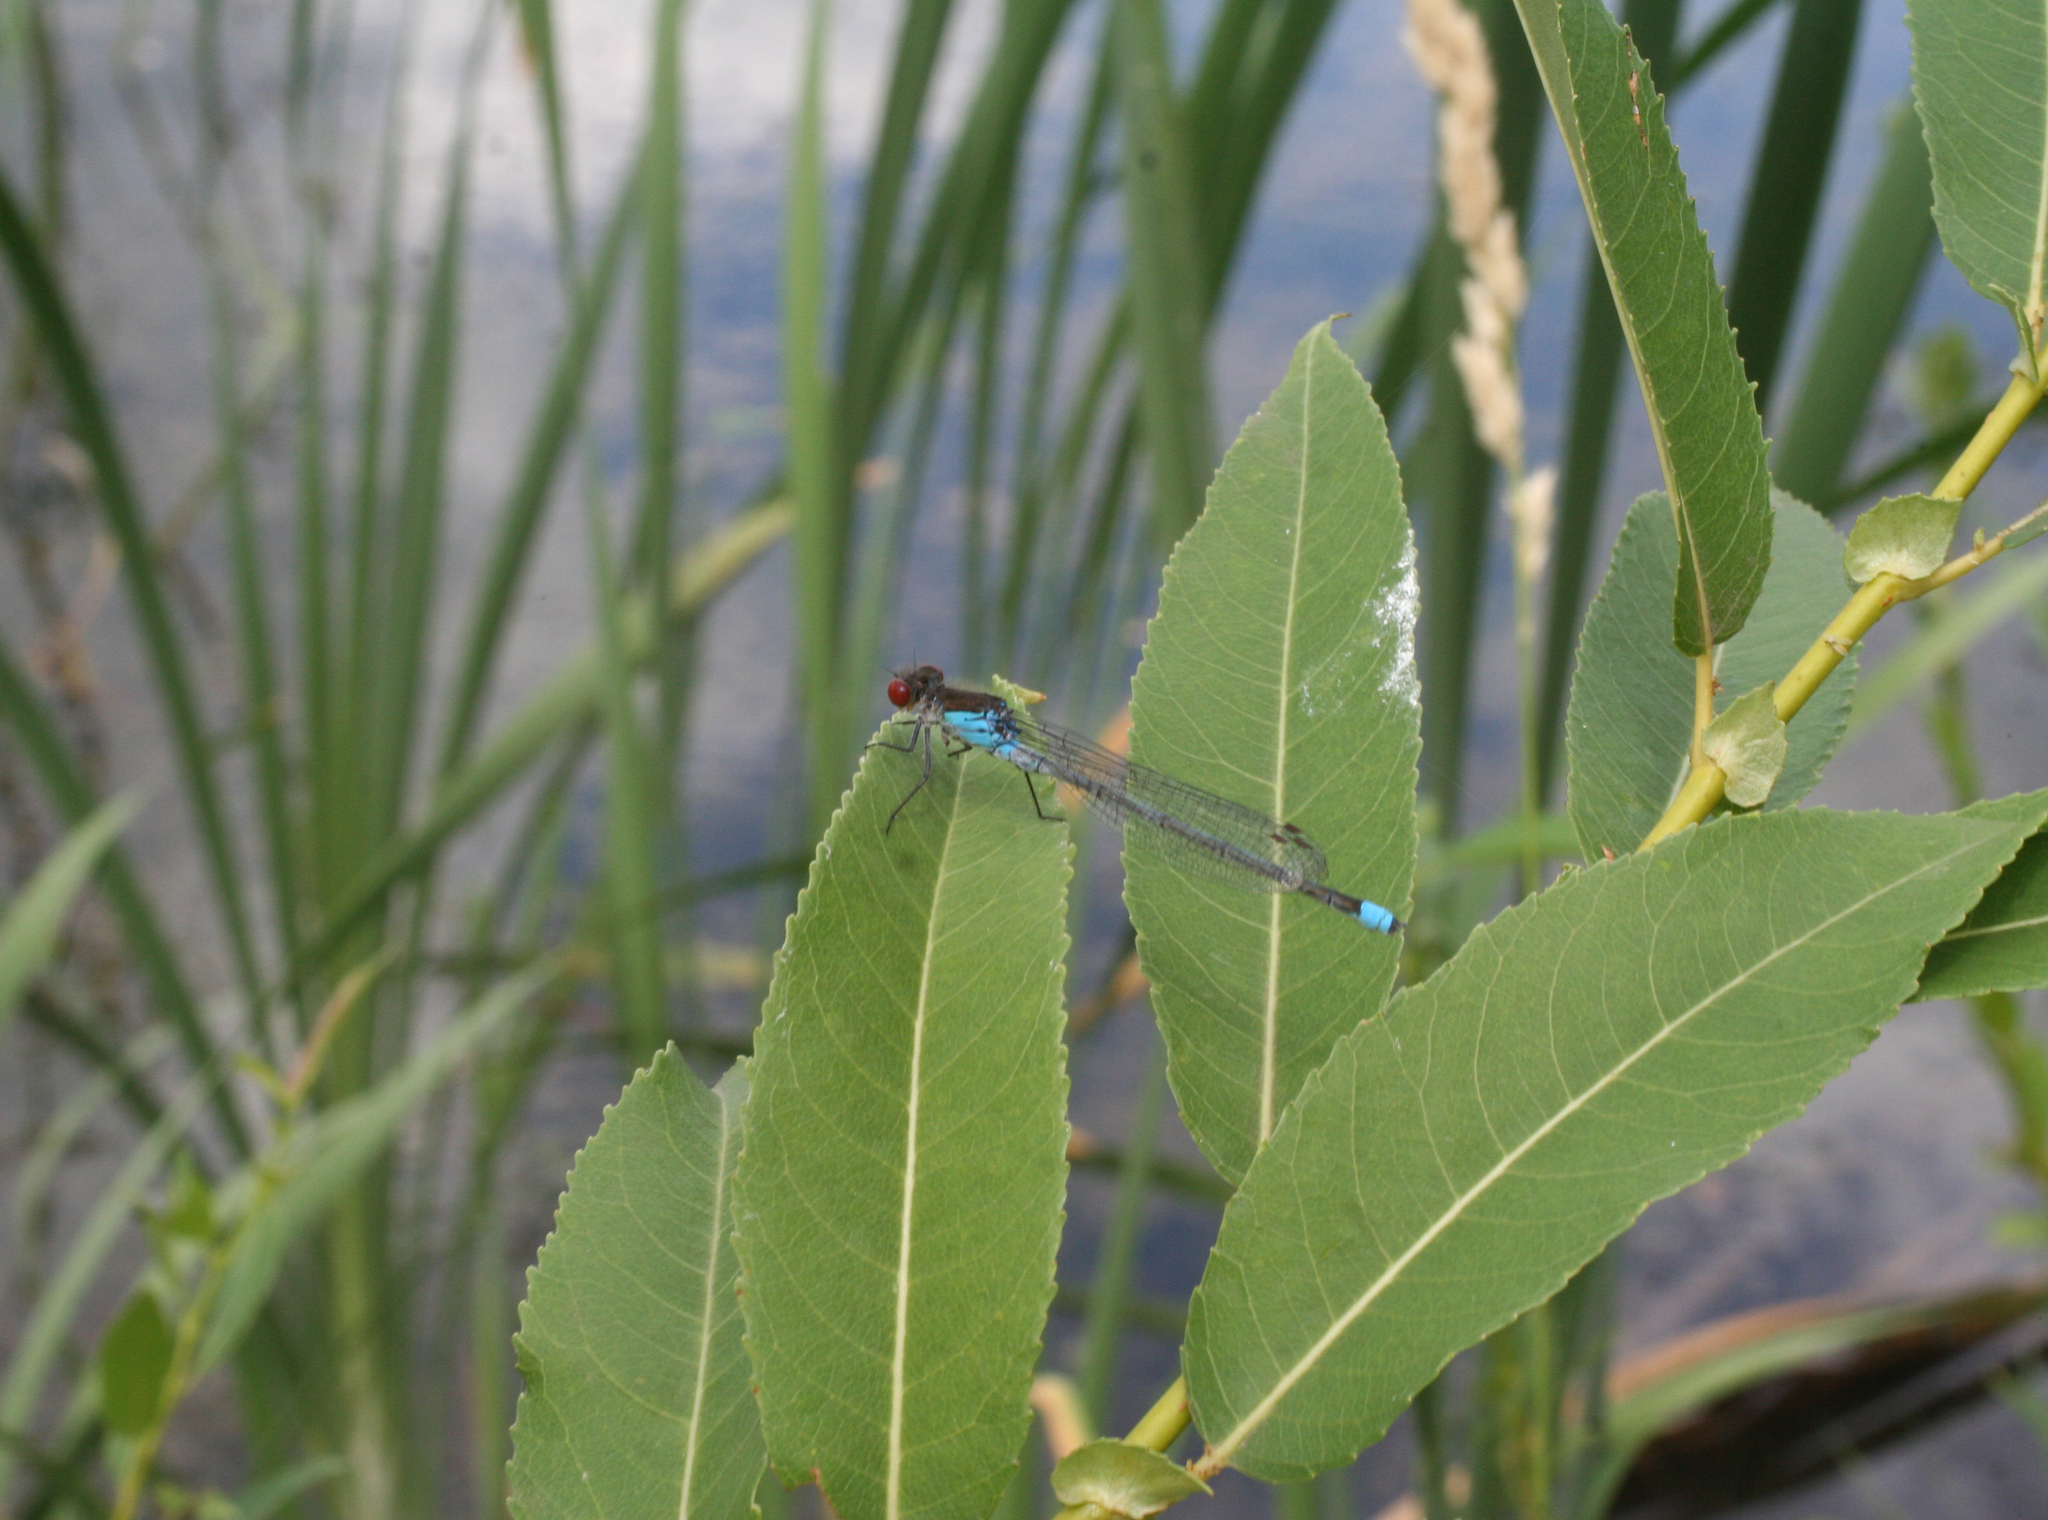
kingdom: Animalia
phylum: Arthropoda
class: Insecta
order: Odonata
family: Coenagrionidae
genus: Erythromma
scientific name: Erythromma najas
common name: Red-eyed damselfly
